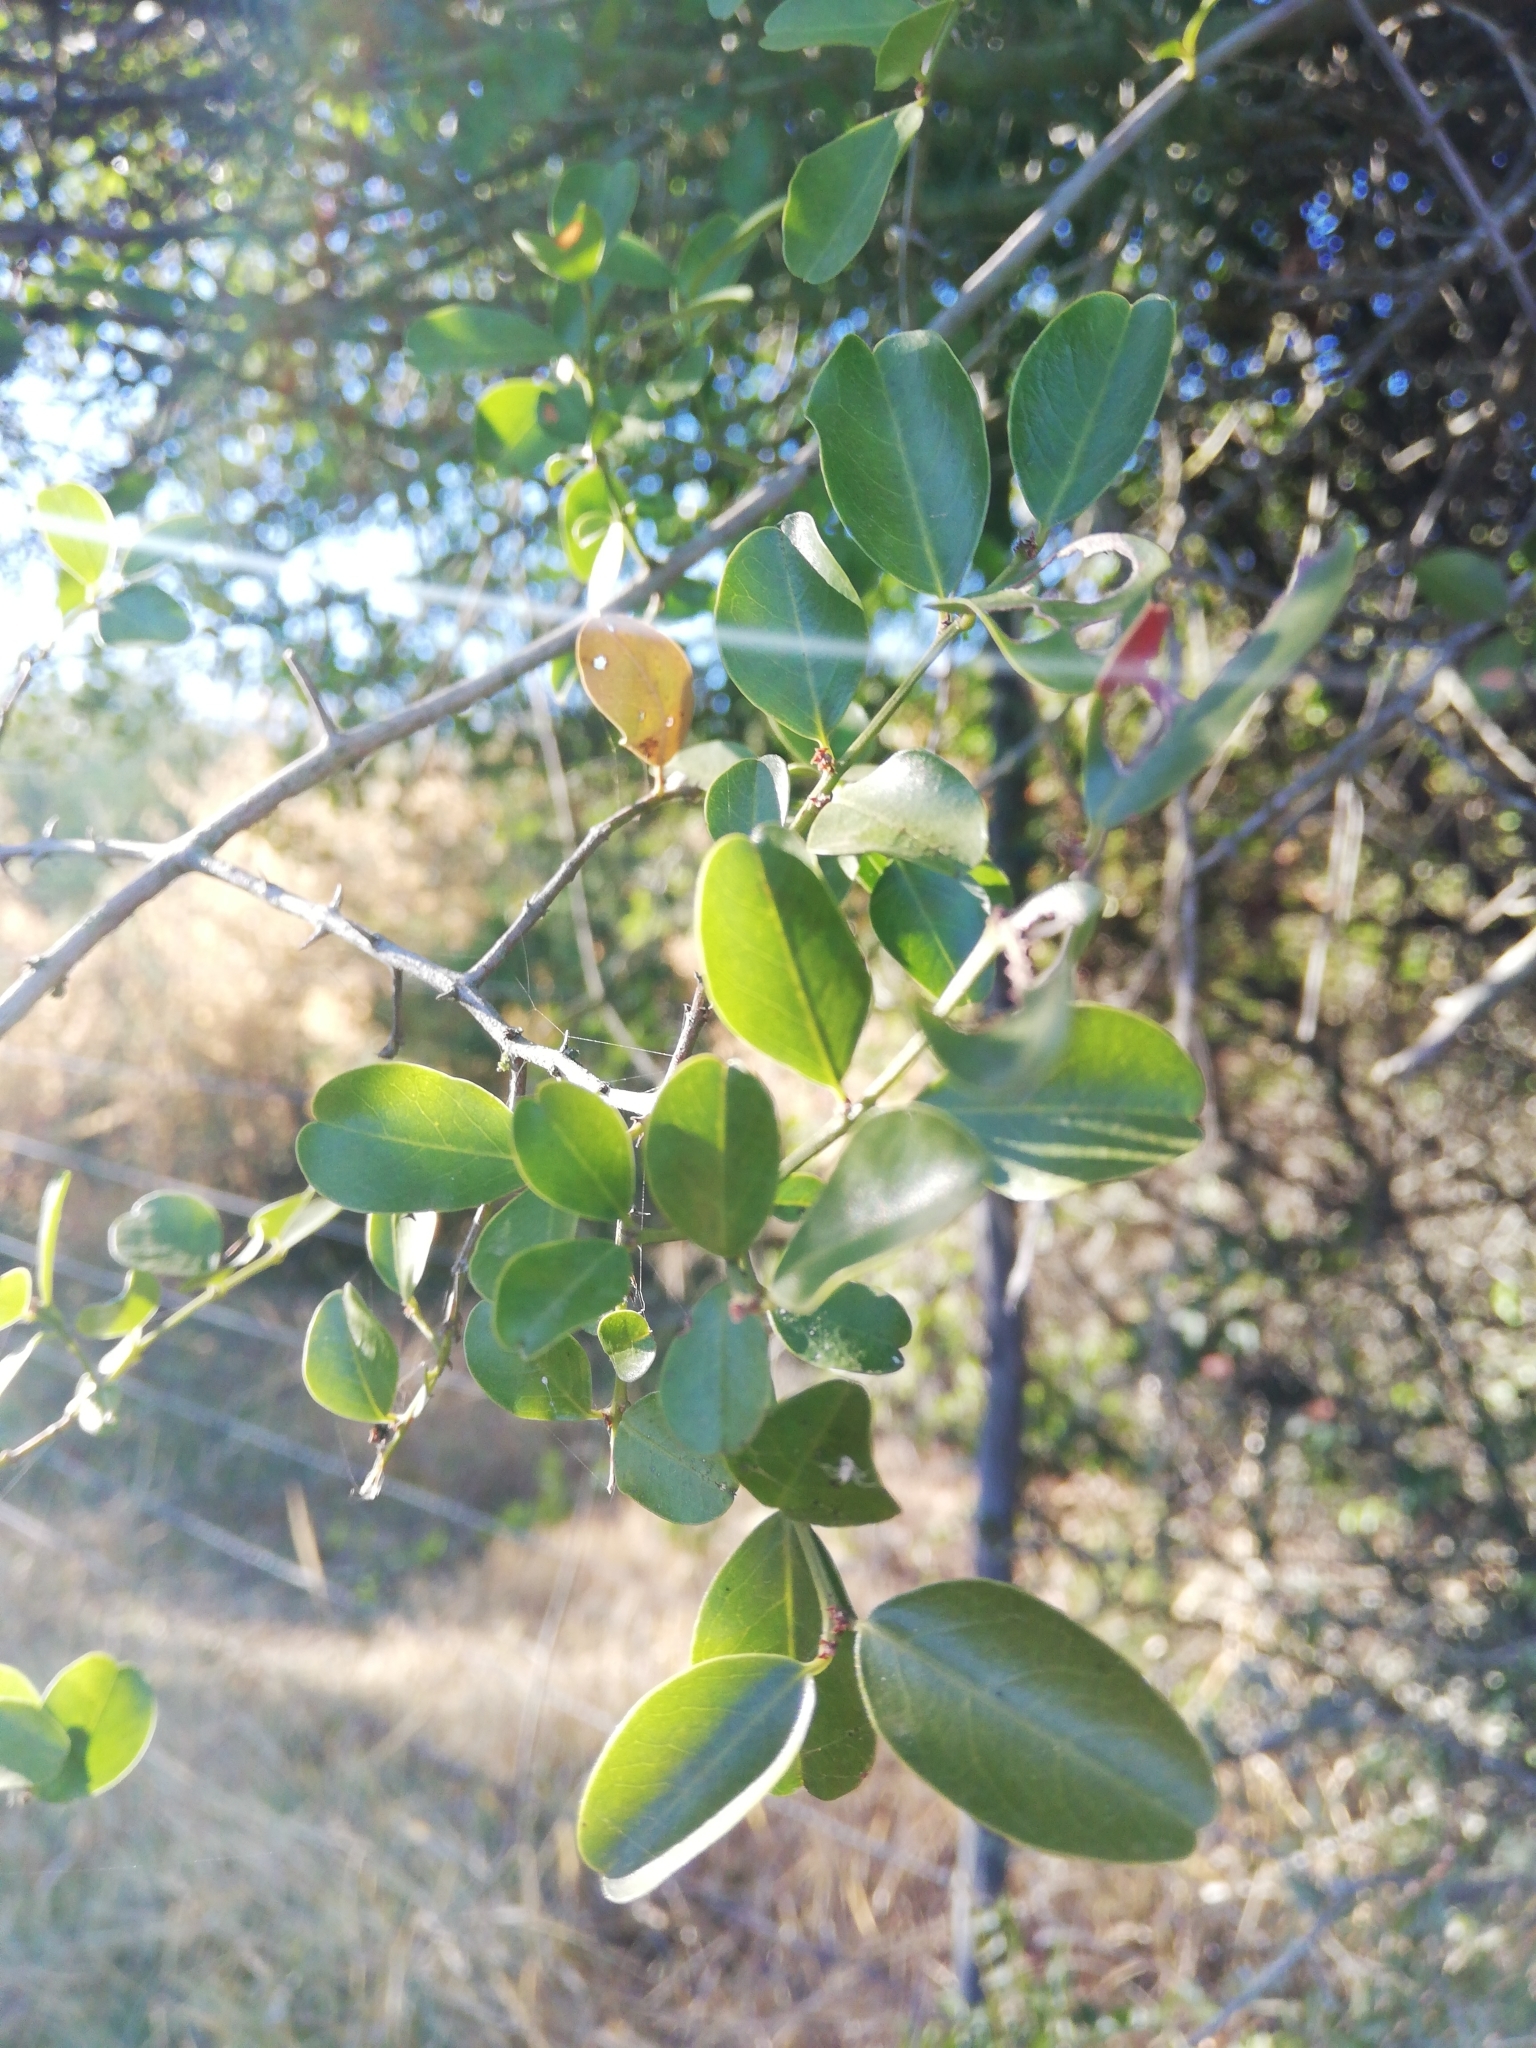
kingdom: Plantae
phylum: Tracheophyta
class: Magnoliopsida
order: Rosales
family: Rhamnaceae
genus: Scutia
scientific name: Scutia myrtina
